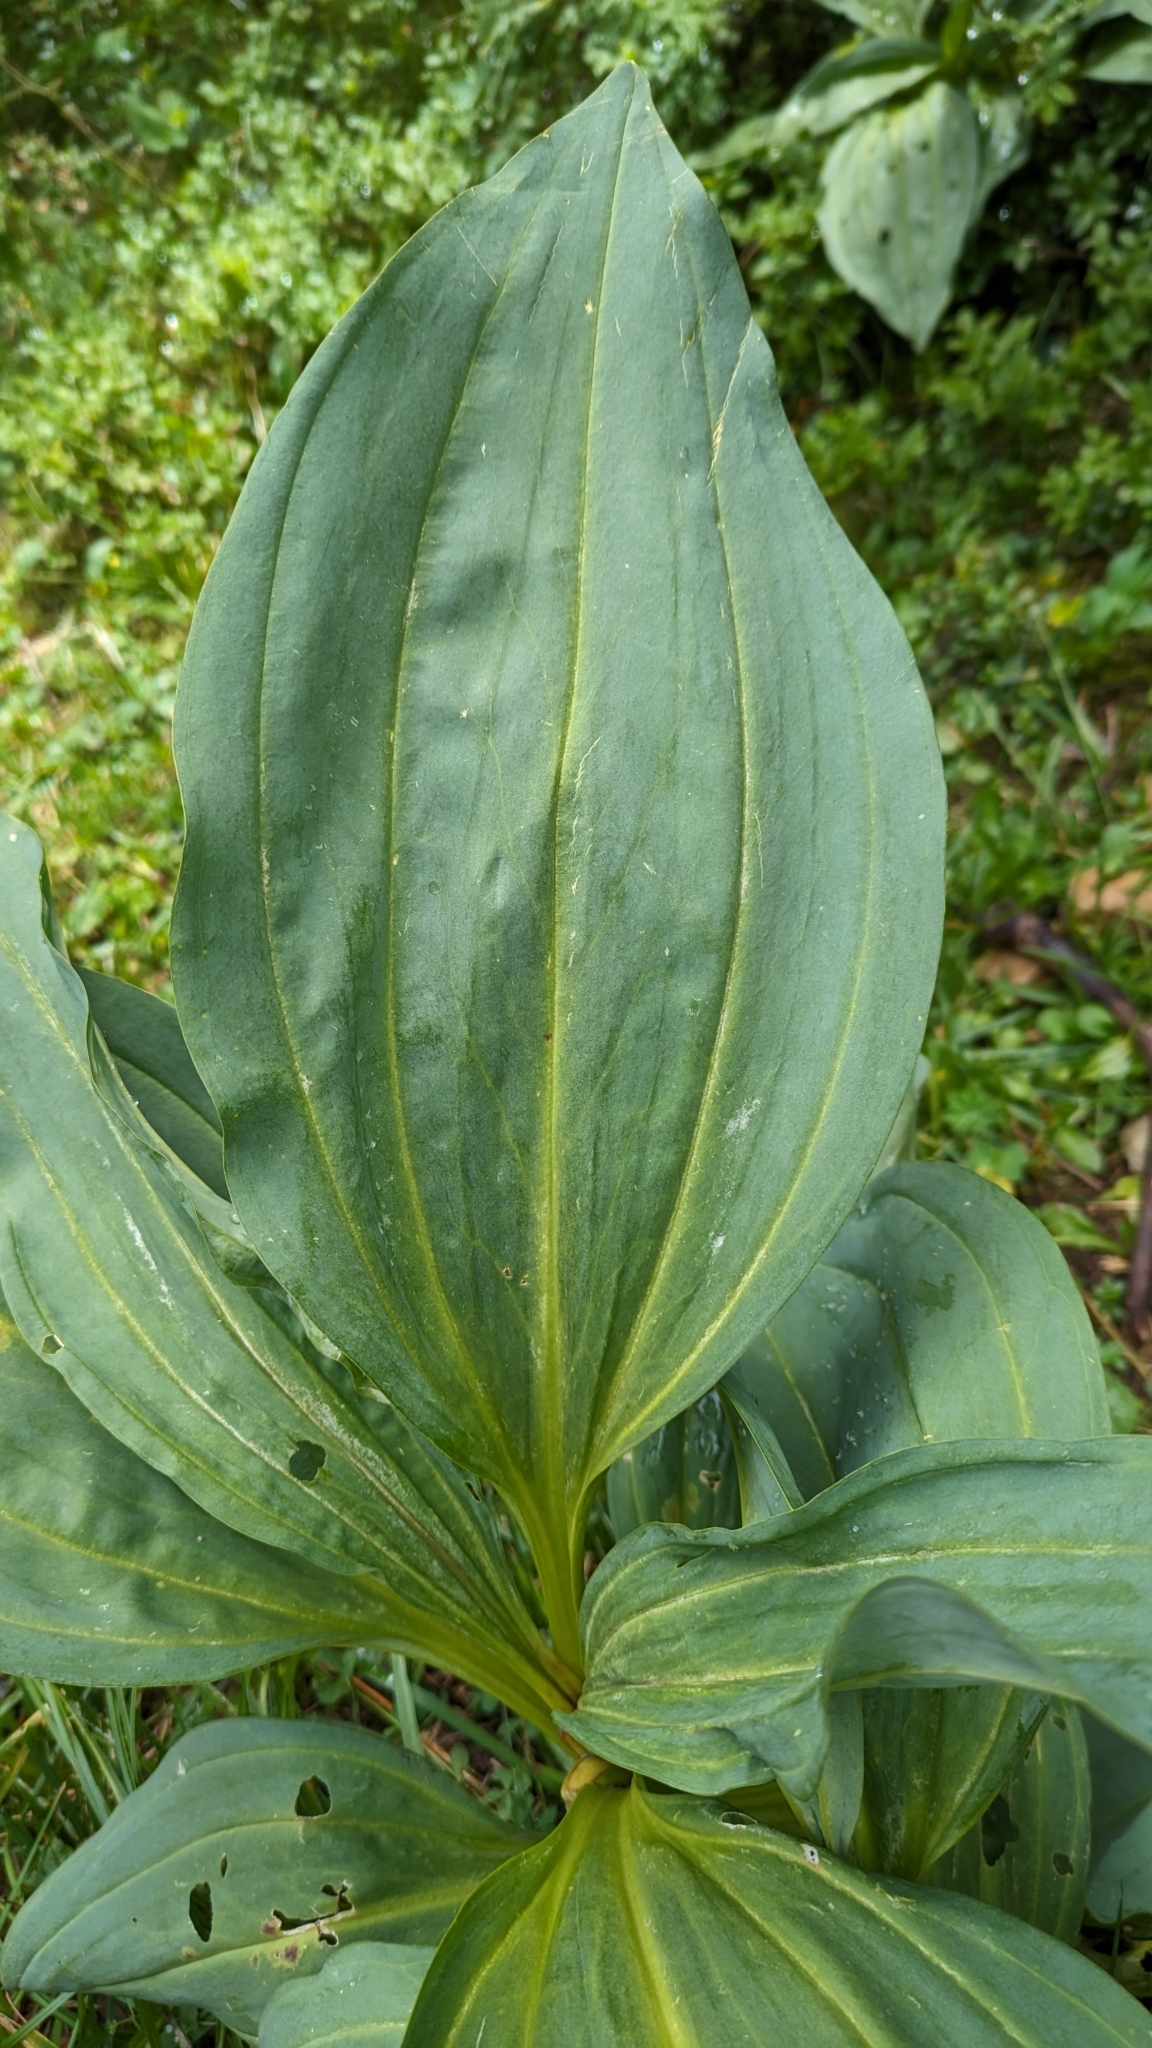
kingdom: Plantae
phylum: Tracheophyta
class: Magnoliopsida
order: Gentianales
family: Gentianaceae
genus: Gentiana
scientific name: Gentiana lutea
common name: Great yellow gentian
